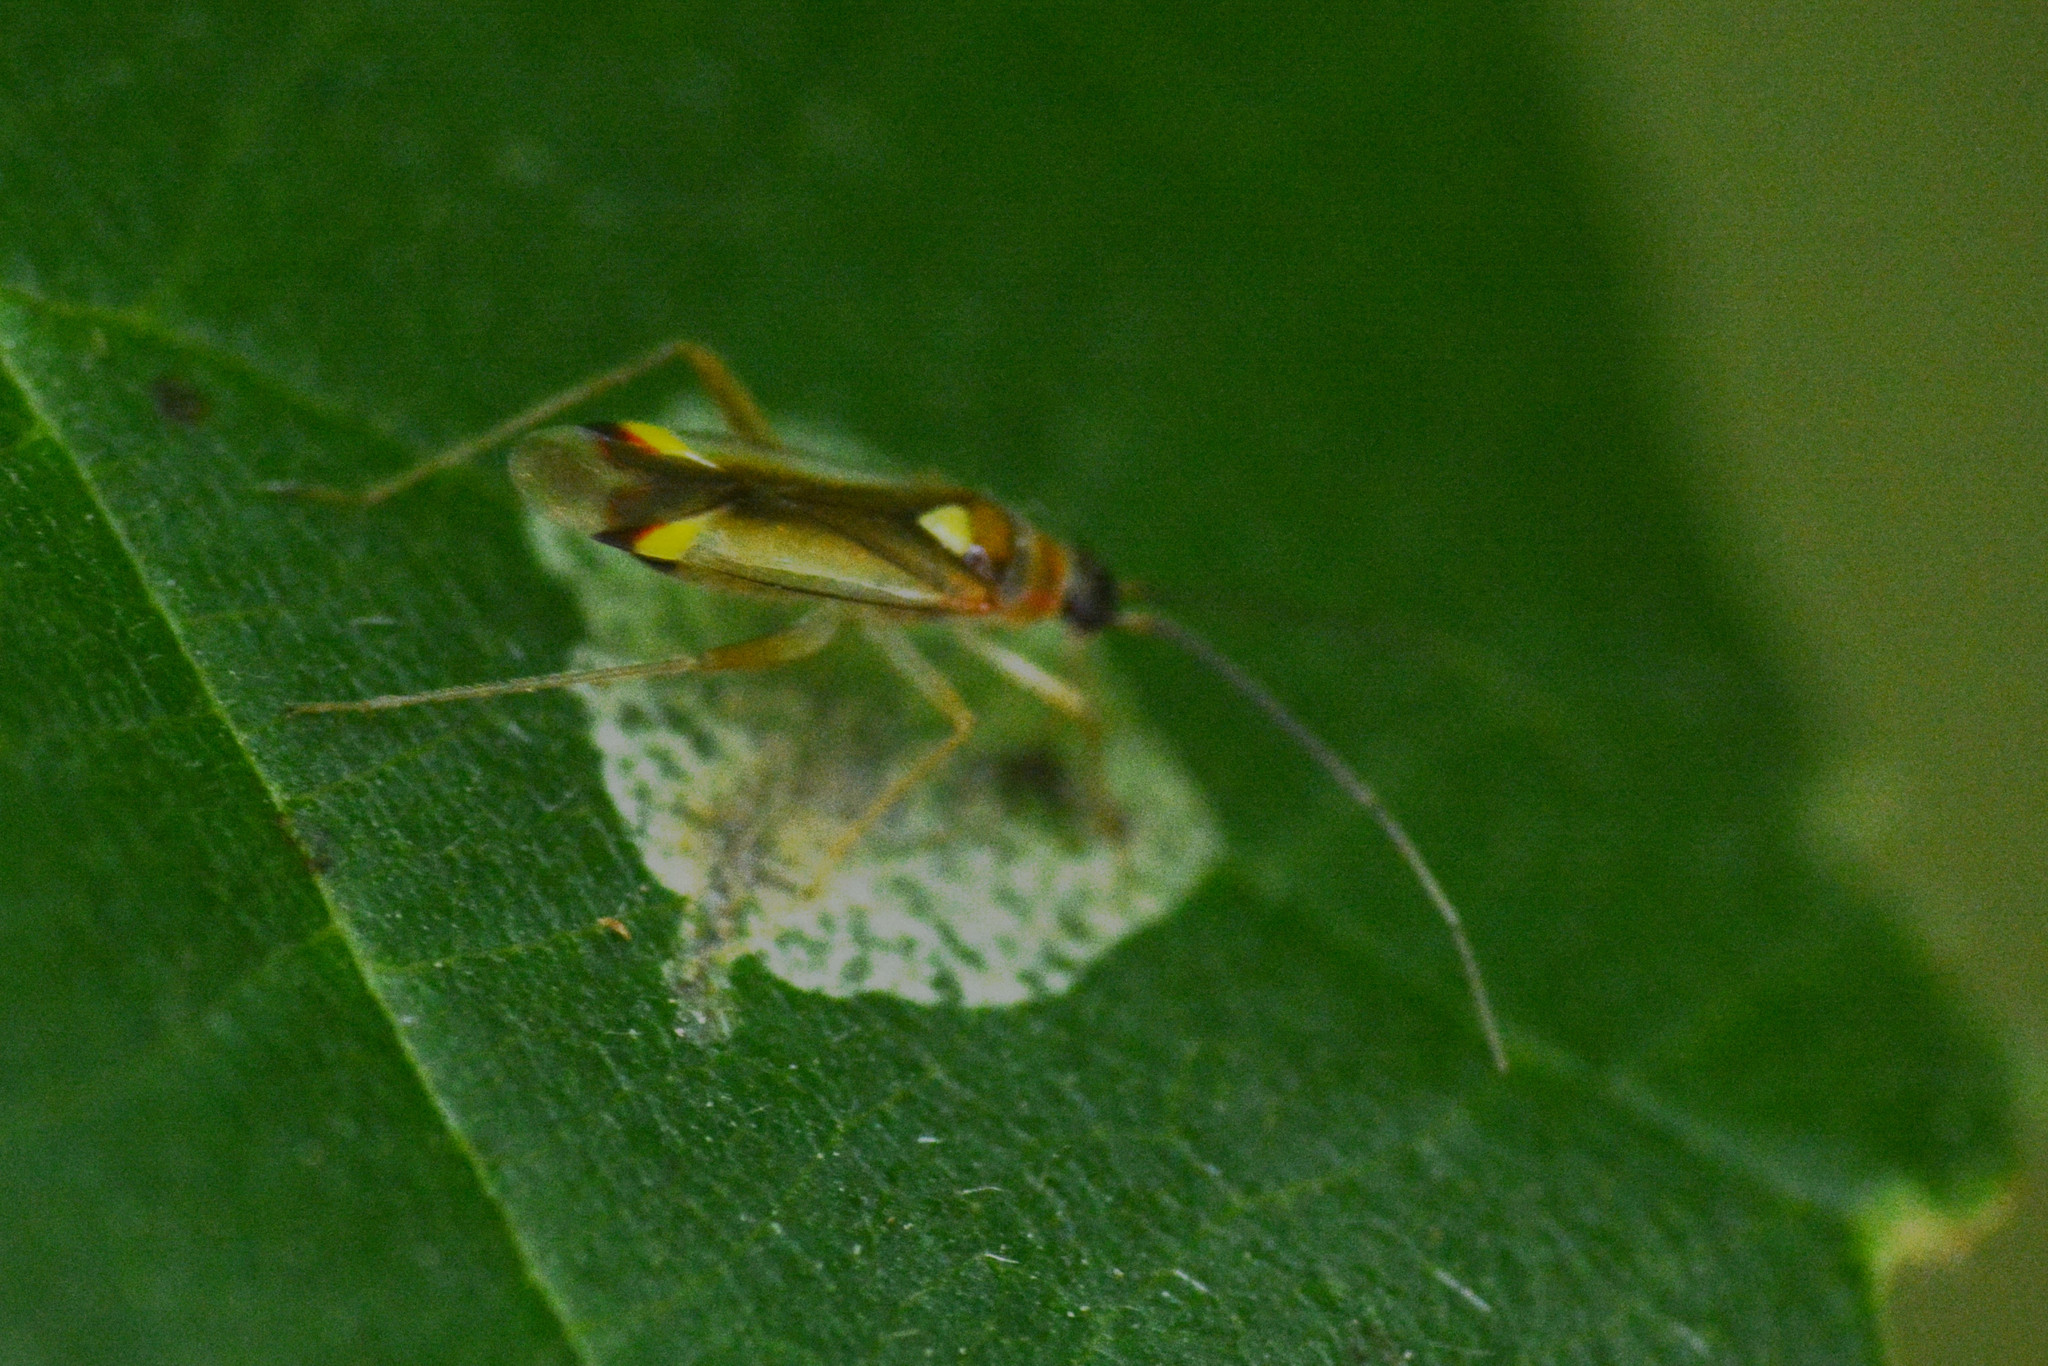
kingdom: Animalia
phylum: Arthropoda
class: Insecta
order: Hemiptera
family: Miridae
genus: Campyloneura
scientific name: Campyloneura virgula
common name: Predatory bug
